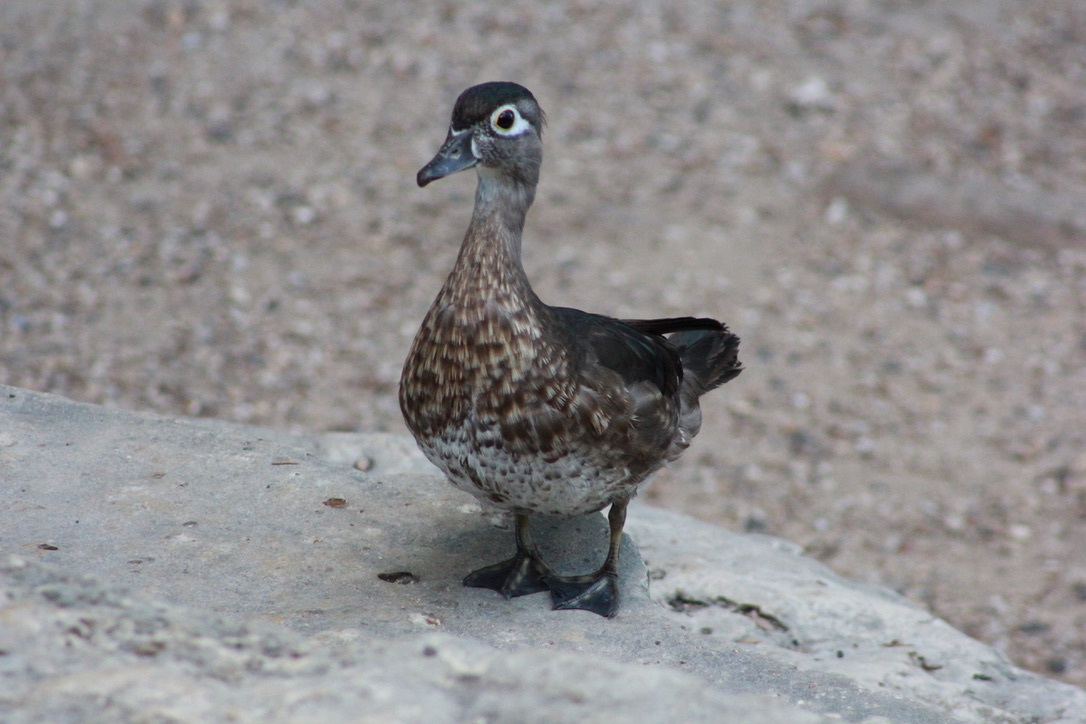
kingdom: Animalia
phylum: Chordata
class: Aves
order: Anseriformes
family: Anatidae
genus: Aix
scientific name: Aix sponsa
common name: Wood duck
